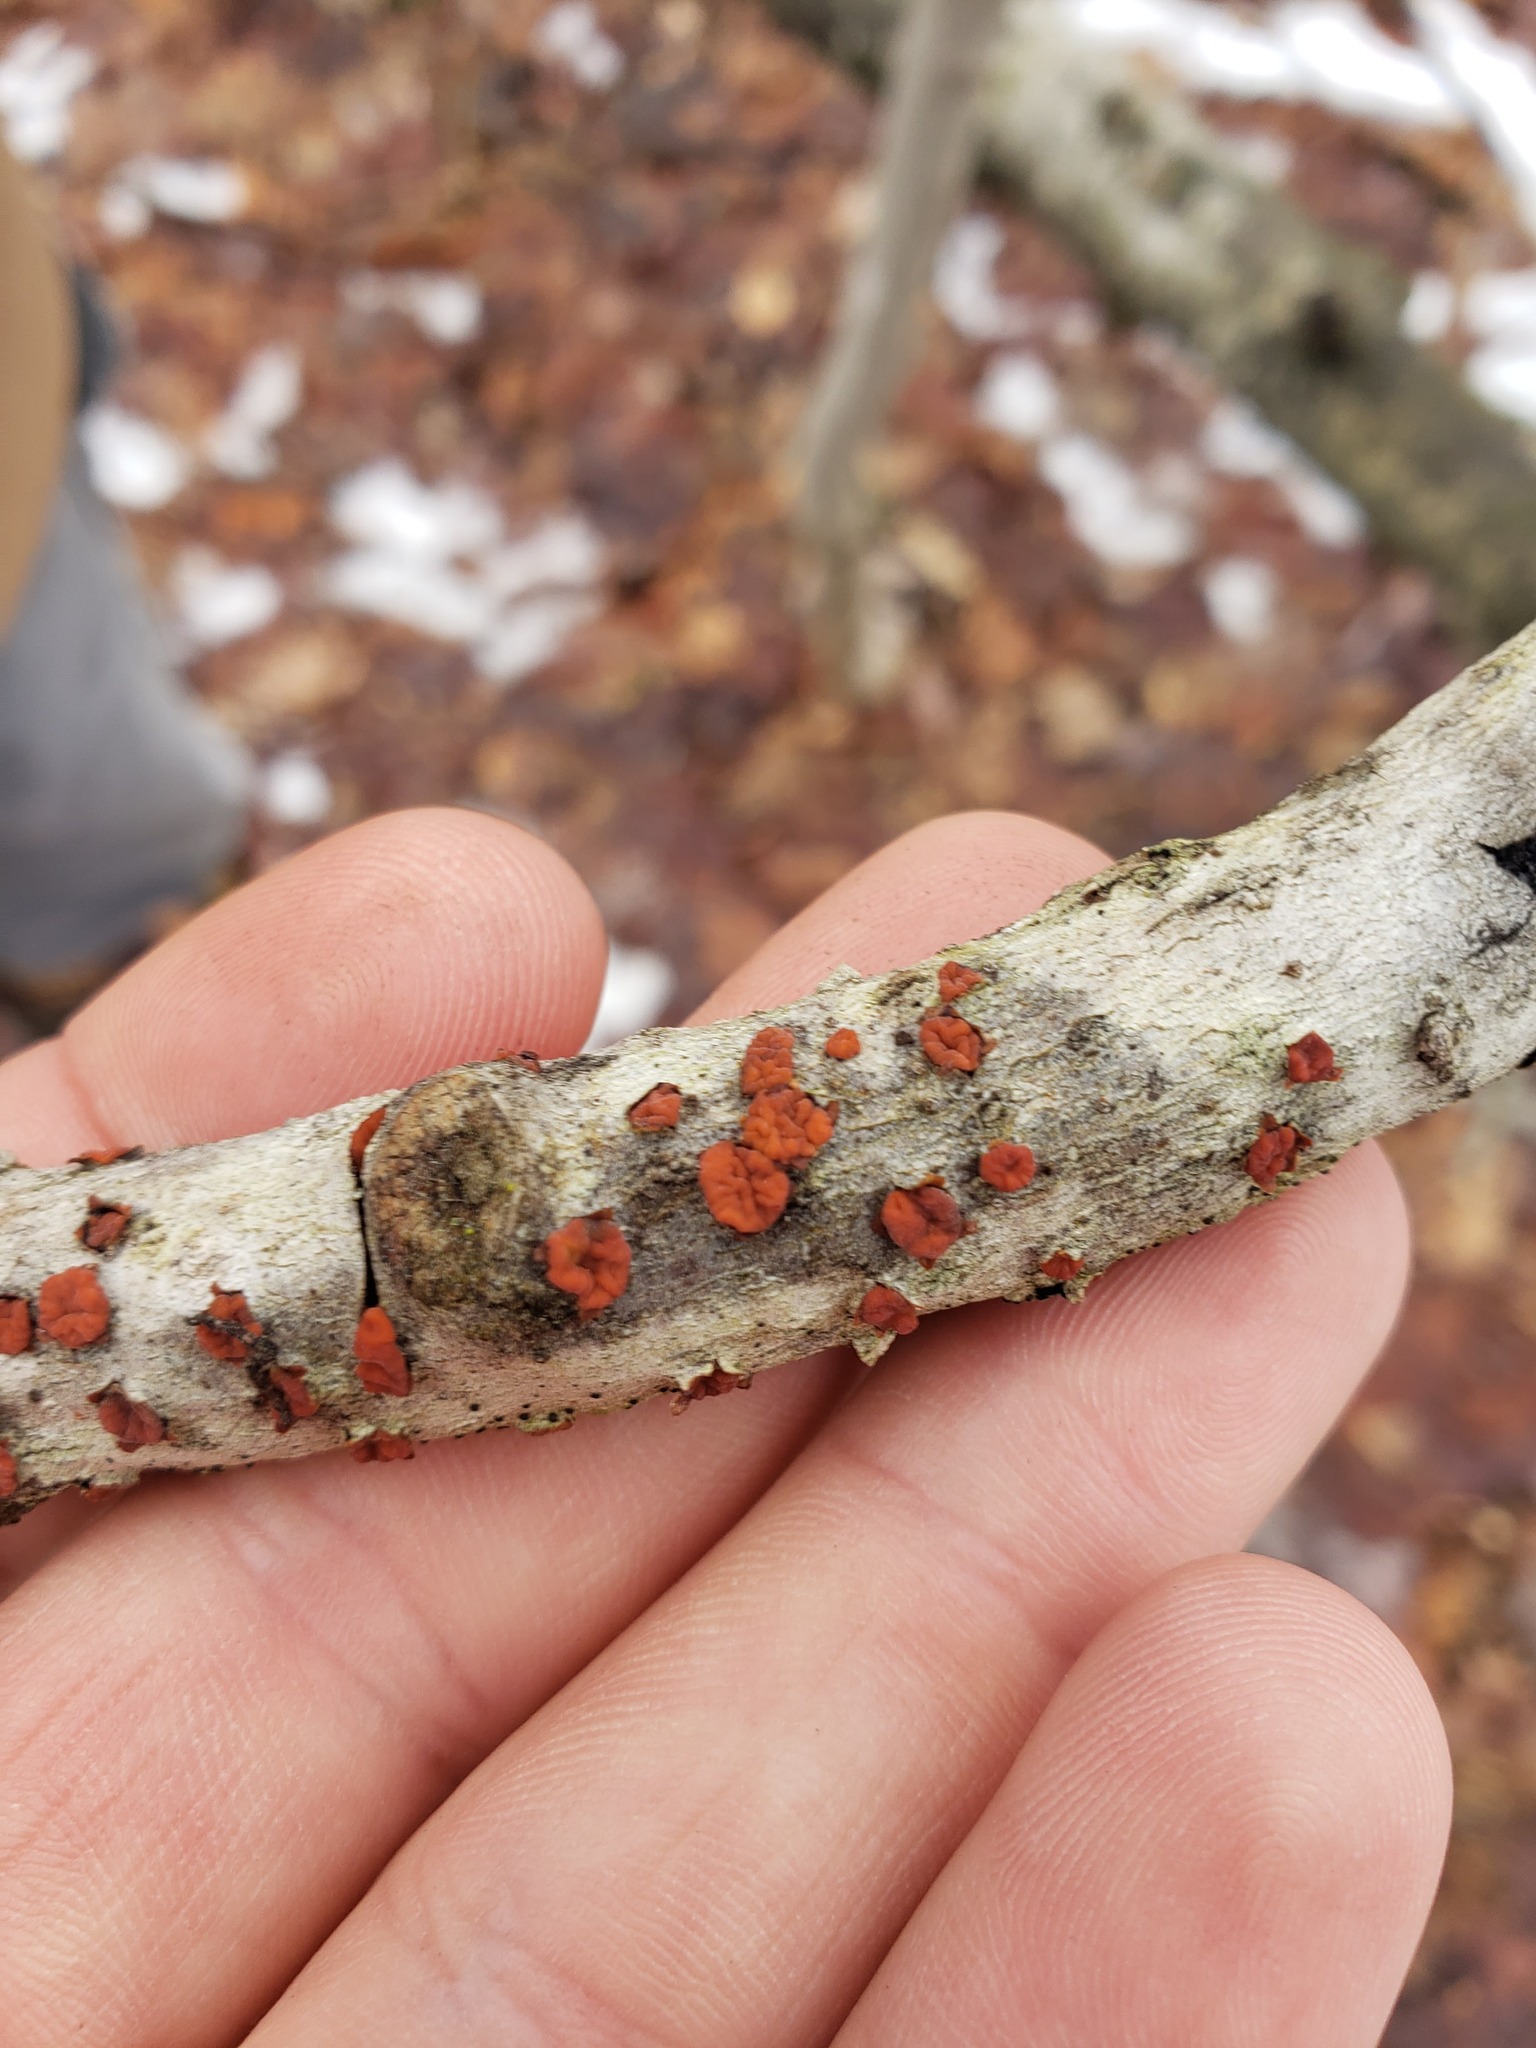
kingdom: Fungi
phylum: Basidiomycota
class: Agaricomycetes
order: Russulales
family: Peniophoraceae
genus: Peniophora
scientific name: Peniophora rufa
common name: Red tree brain fungus
